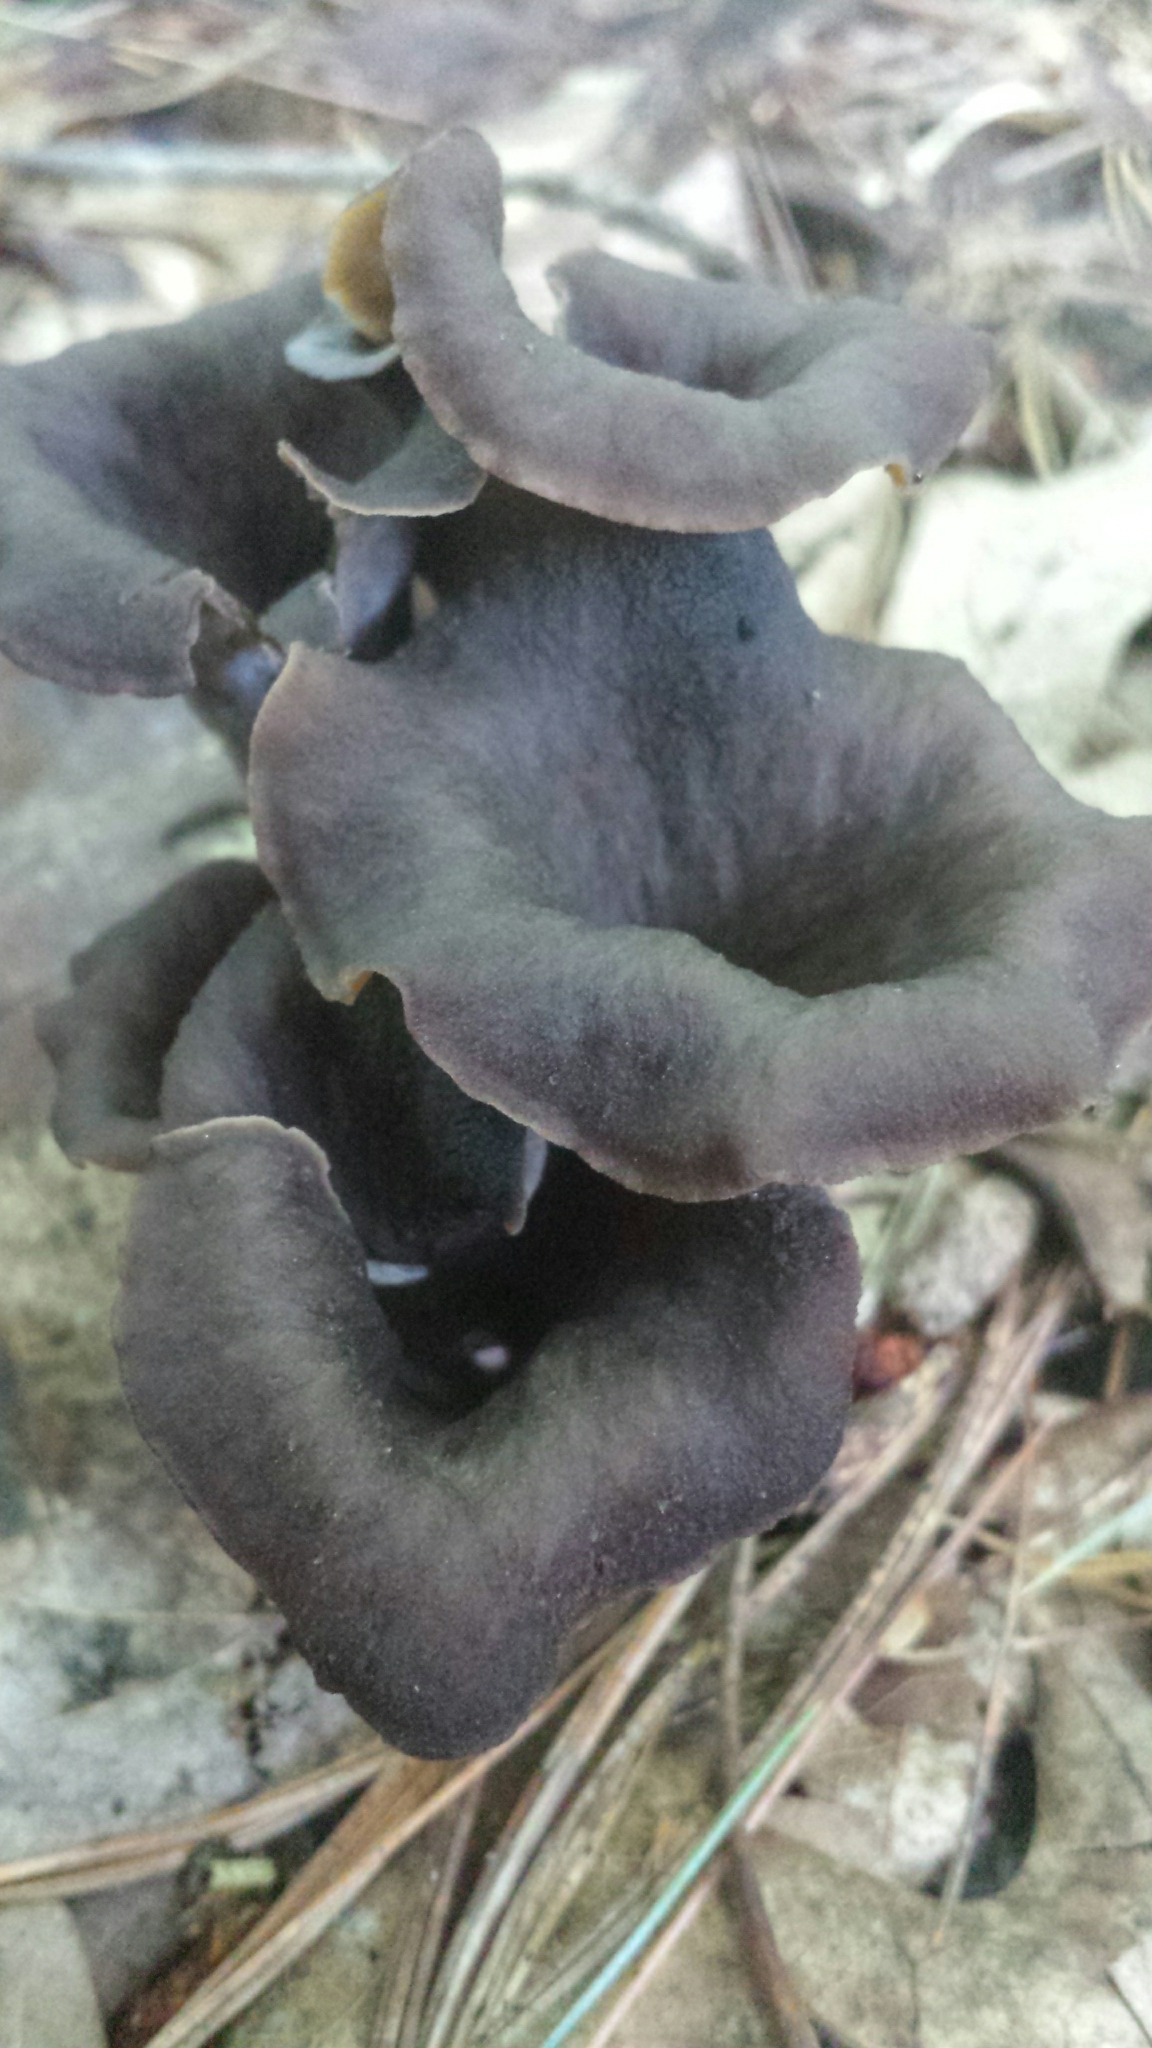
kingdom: Fungi
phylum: Basidiomycota
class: Agaricomycetes
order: Cantharellales
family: Hydnaceae
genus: Craterellus
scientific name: Craterellus cornucopioides
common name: Horn of plenty
